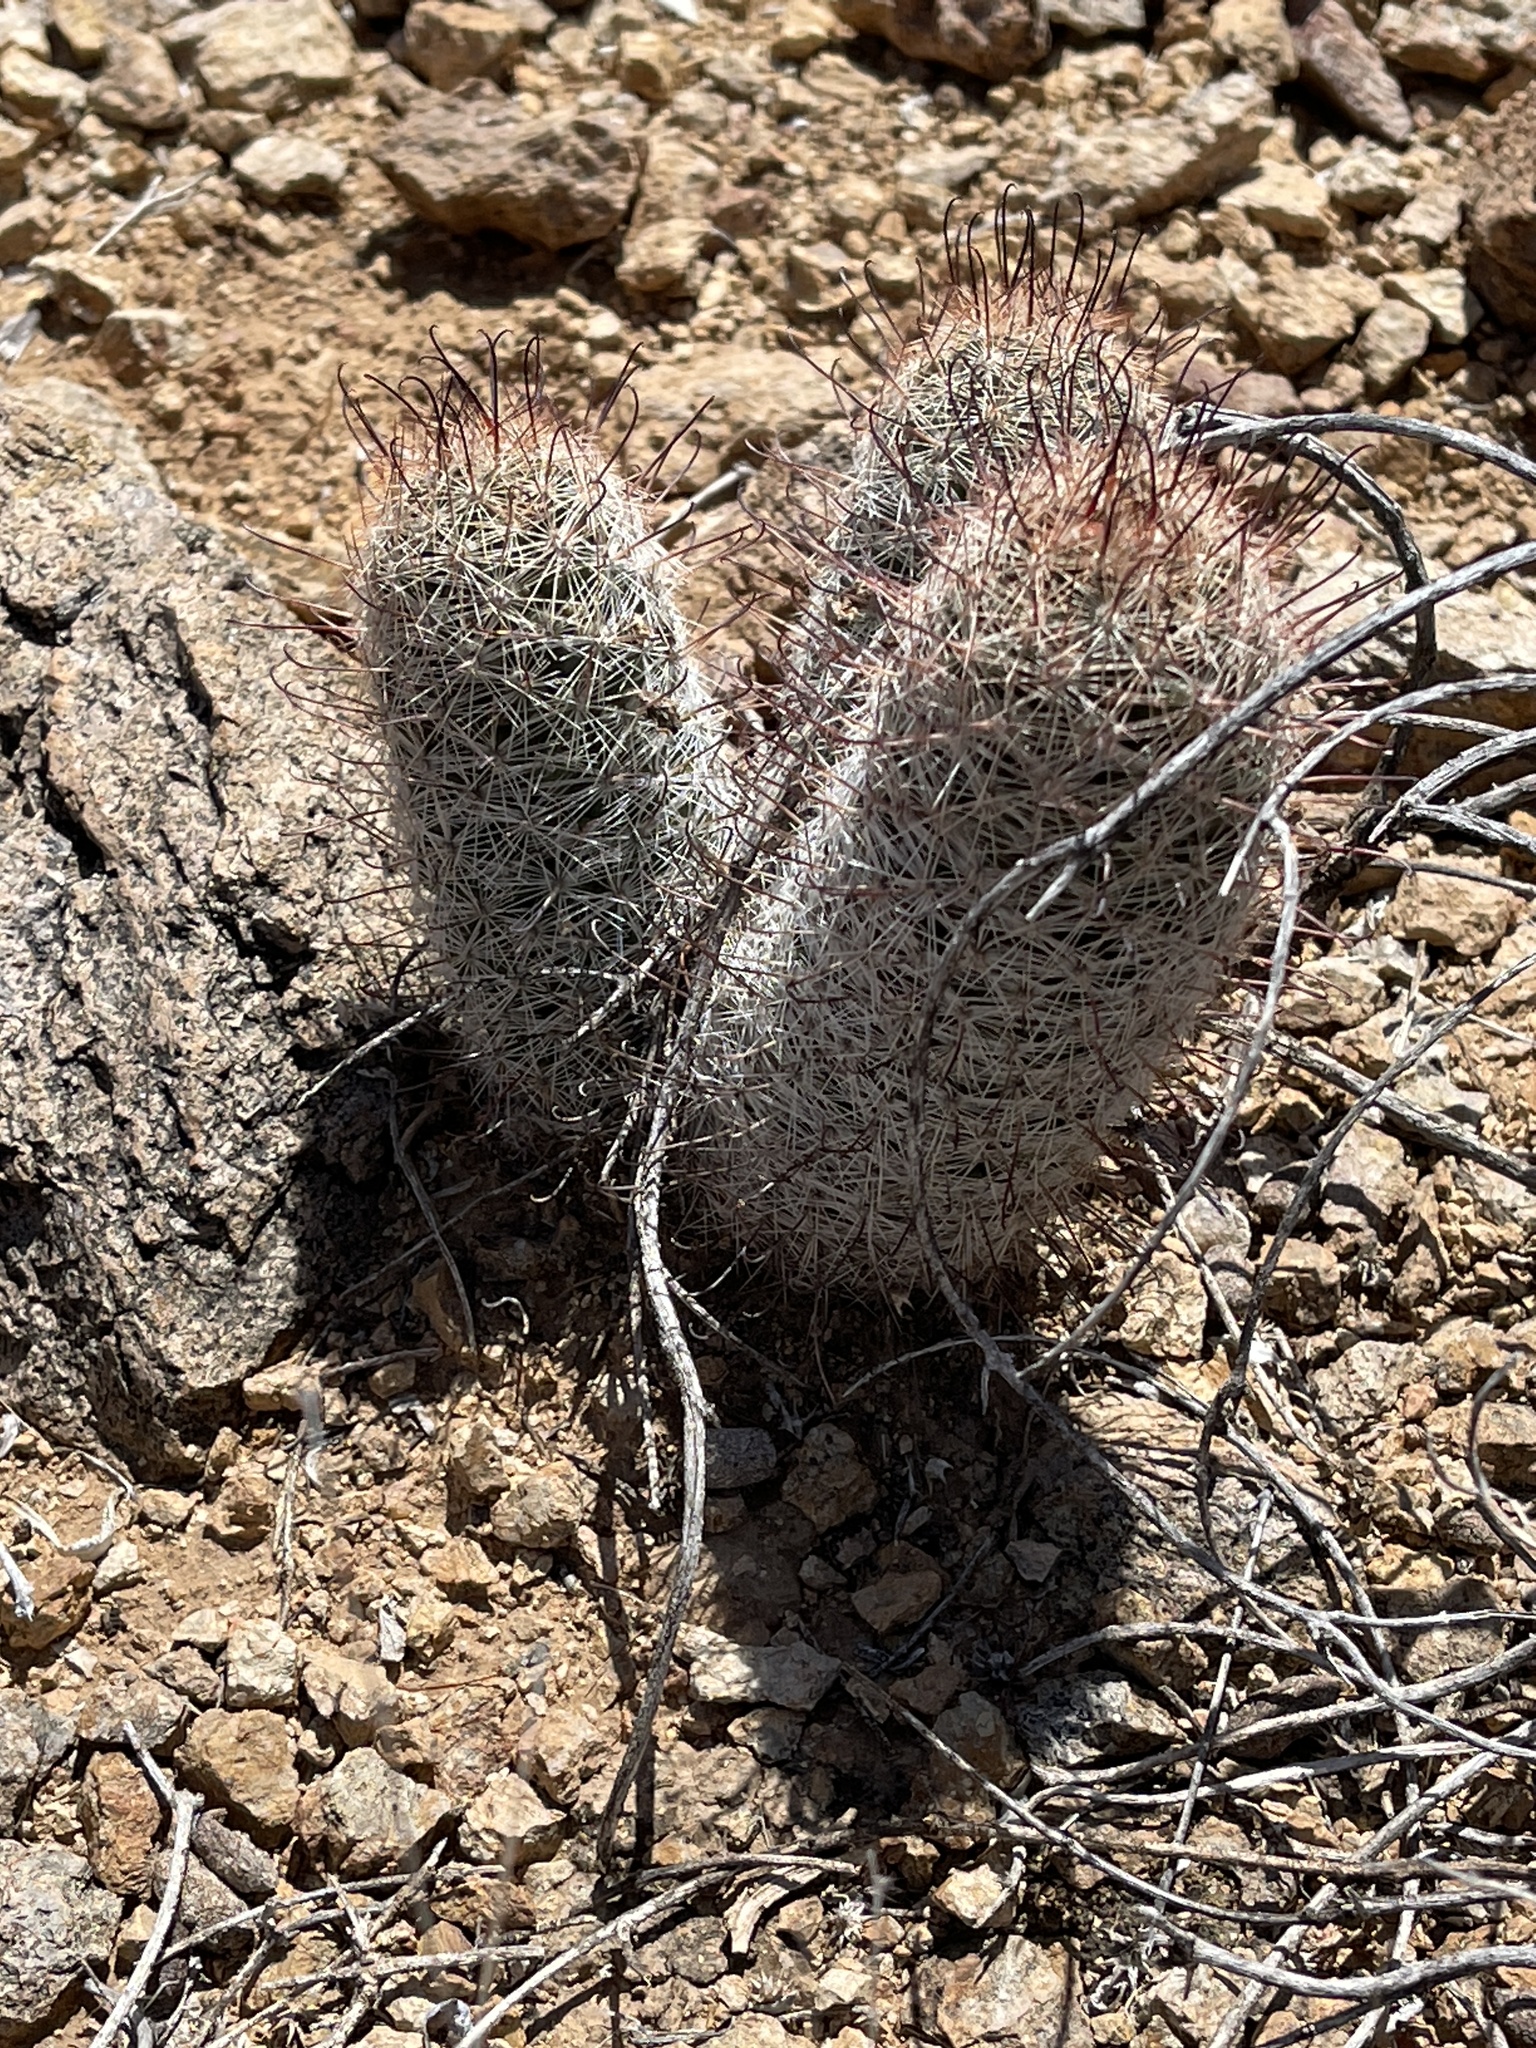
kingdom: Plantae
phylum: Tracheophyta
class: Magnoliopsida
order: Caryophyllales
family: Cactaceae
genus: Cochemiea
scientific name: Cochemiea grahamii
